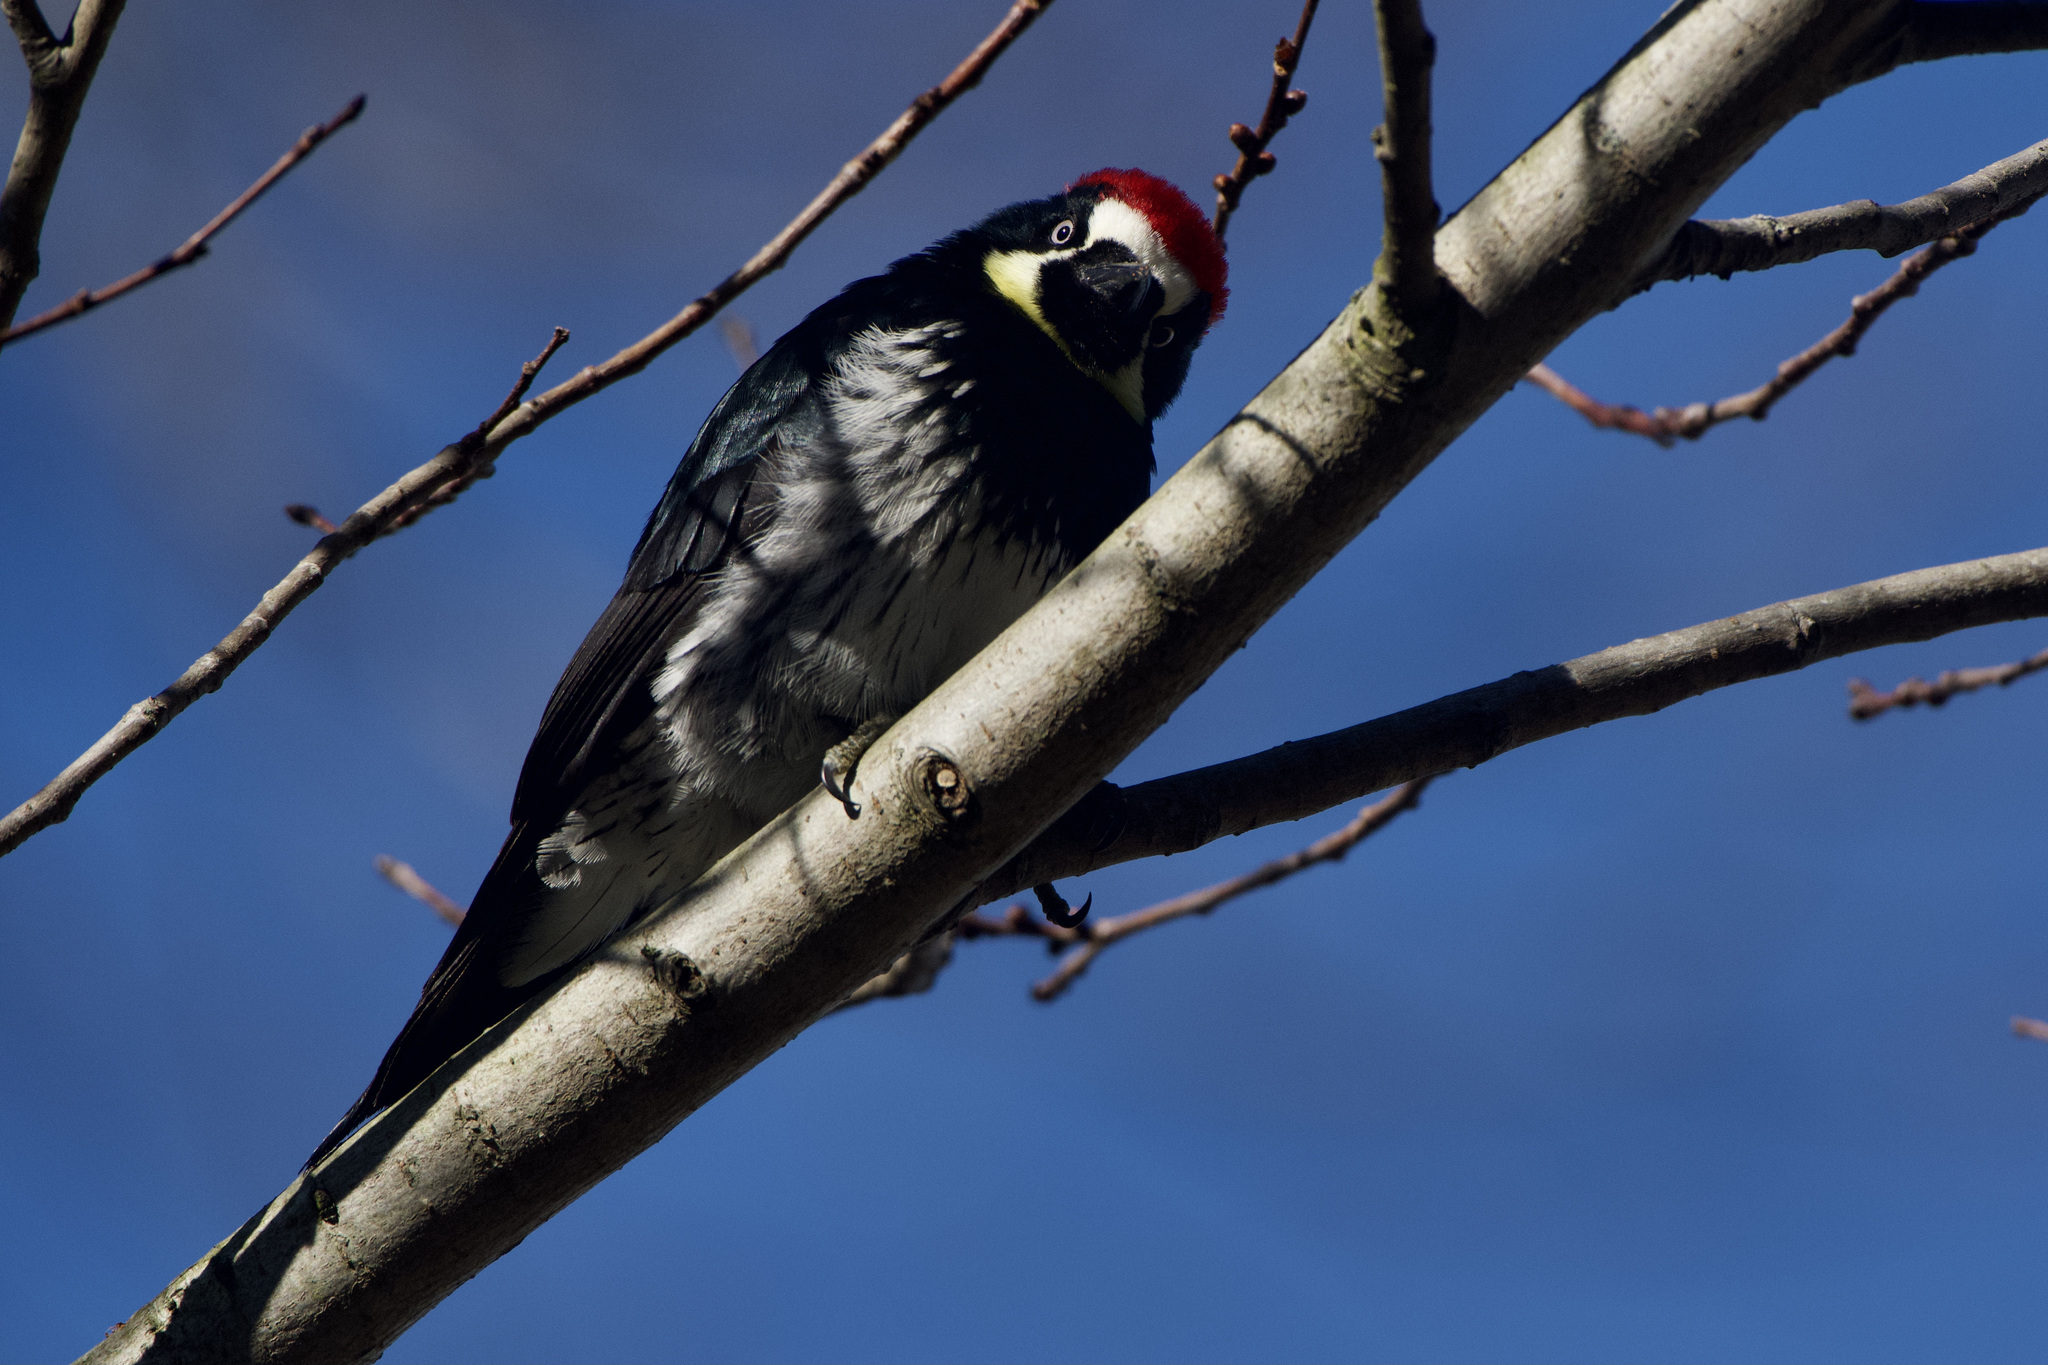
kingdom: Animalia
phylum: Chordata
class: Aves
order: Piciformes
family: Picidae
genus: Melanerpes
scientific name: Melanerpes formicivorus
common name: Acorn woodpecker
